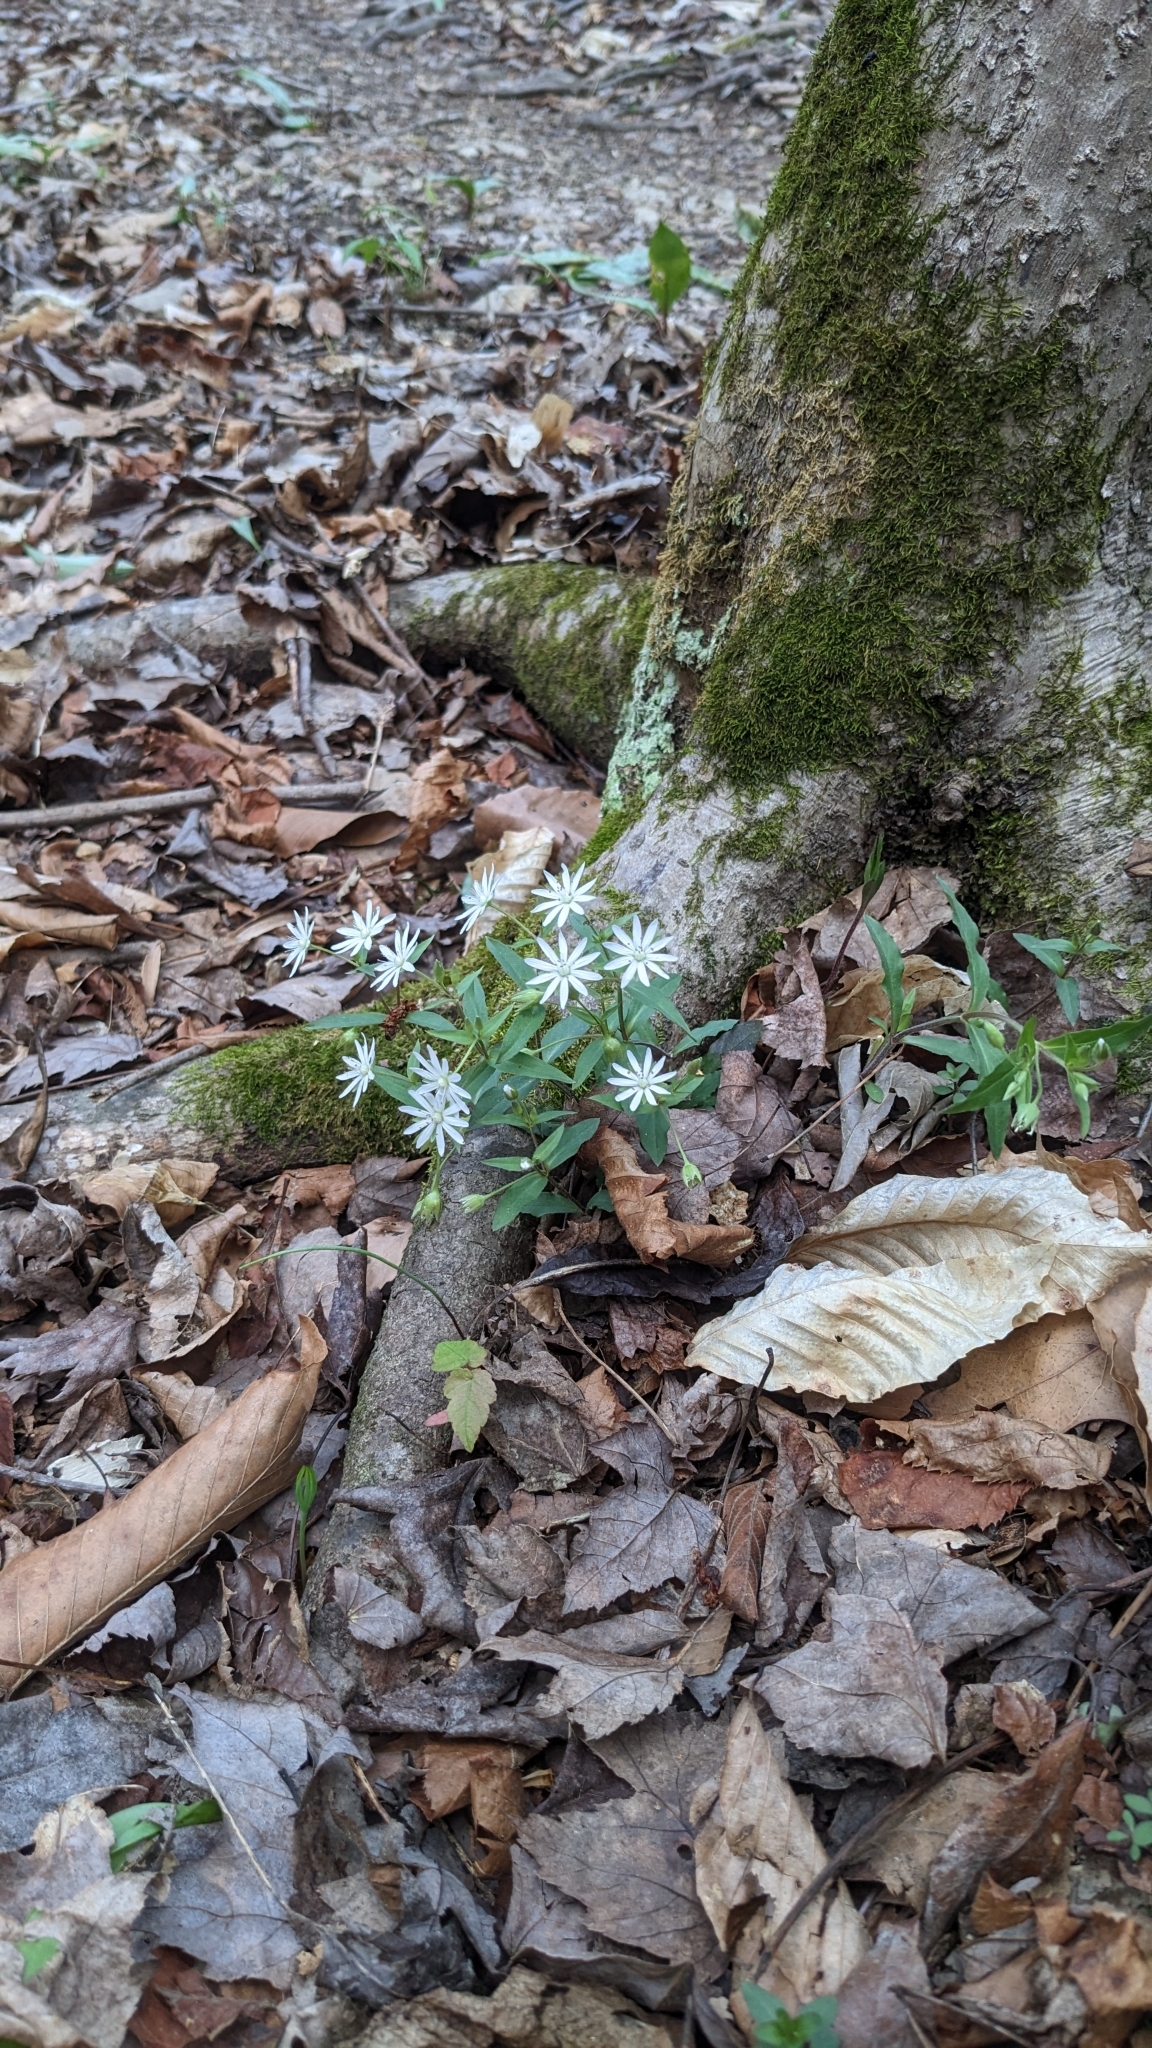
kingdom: Plantae
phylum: Tracheophyta
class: Magnoliopsida
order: Caryophyllales
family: Caryophyllaceae
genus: Stellaria
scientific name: Stellaria pubera
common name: Star chickweed
